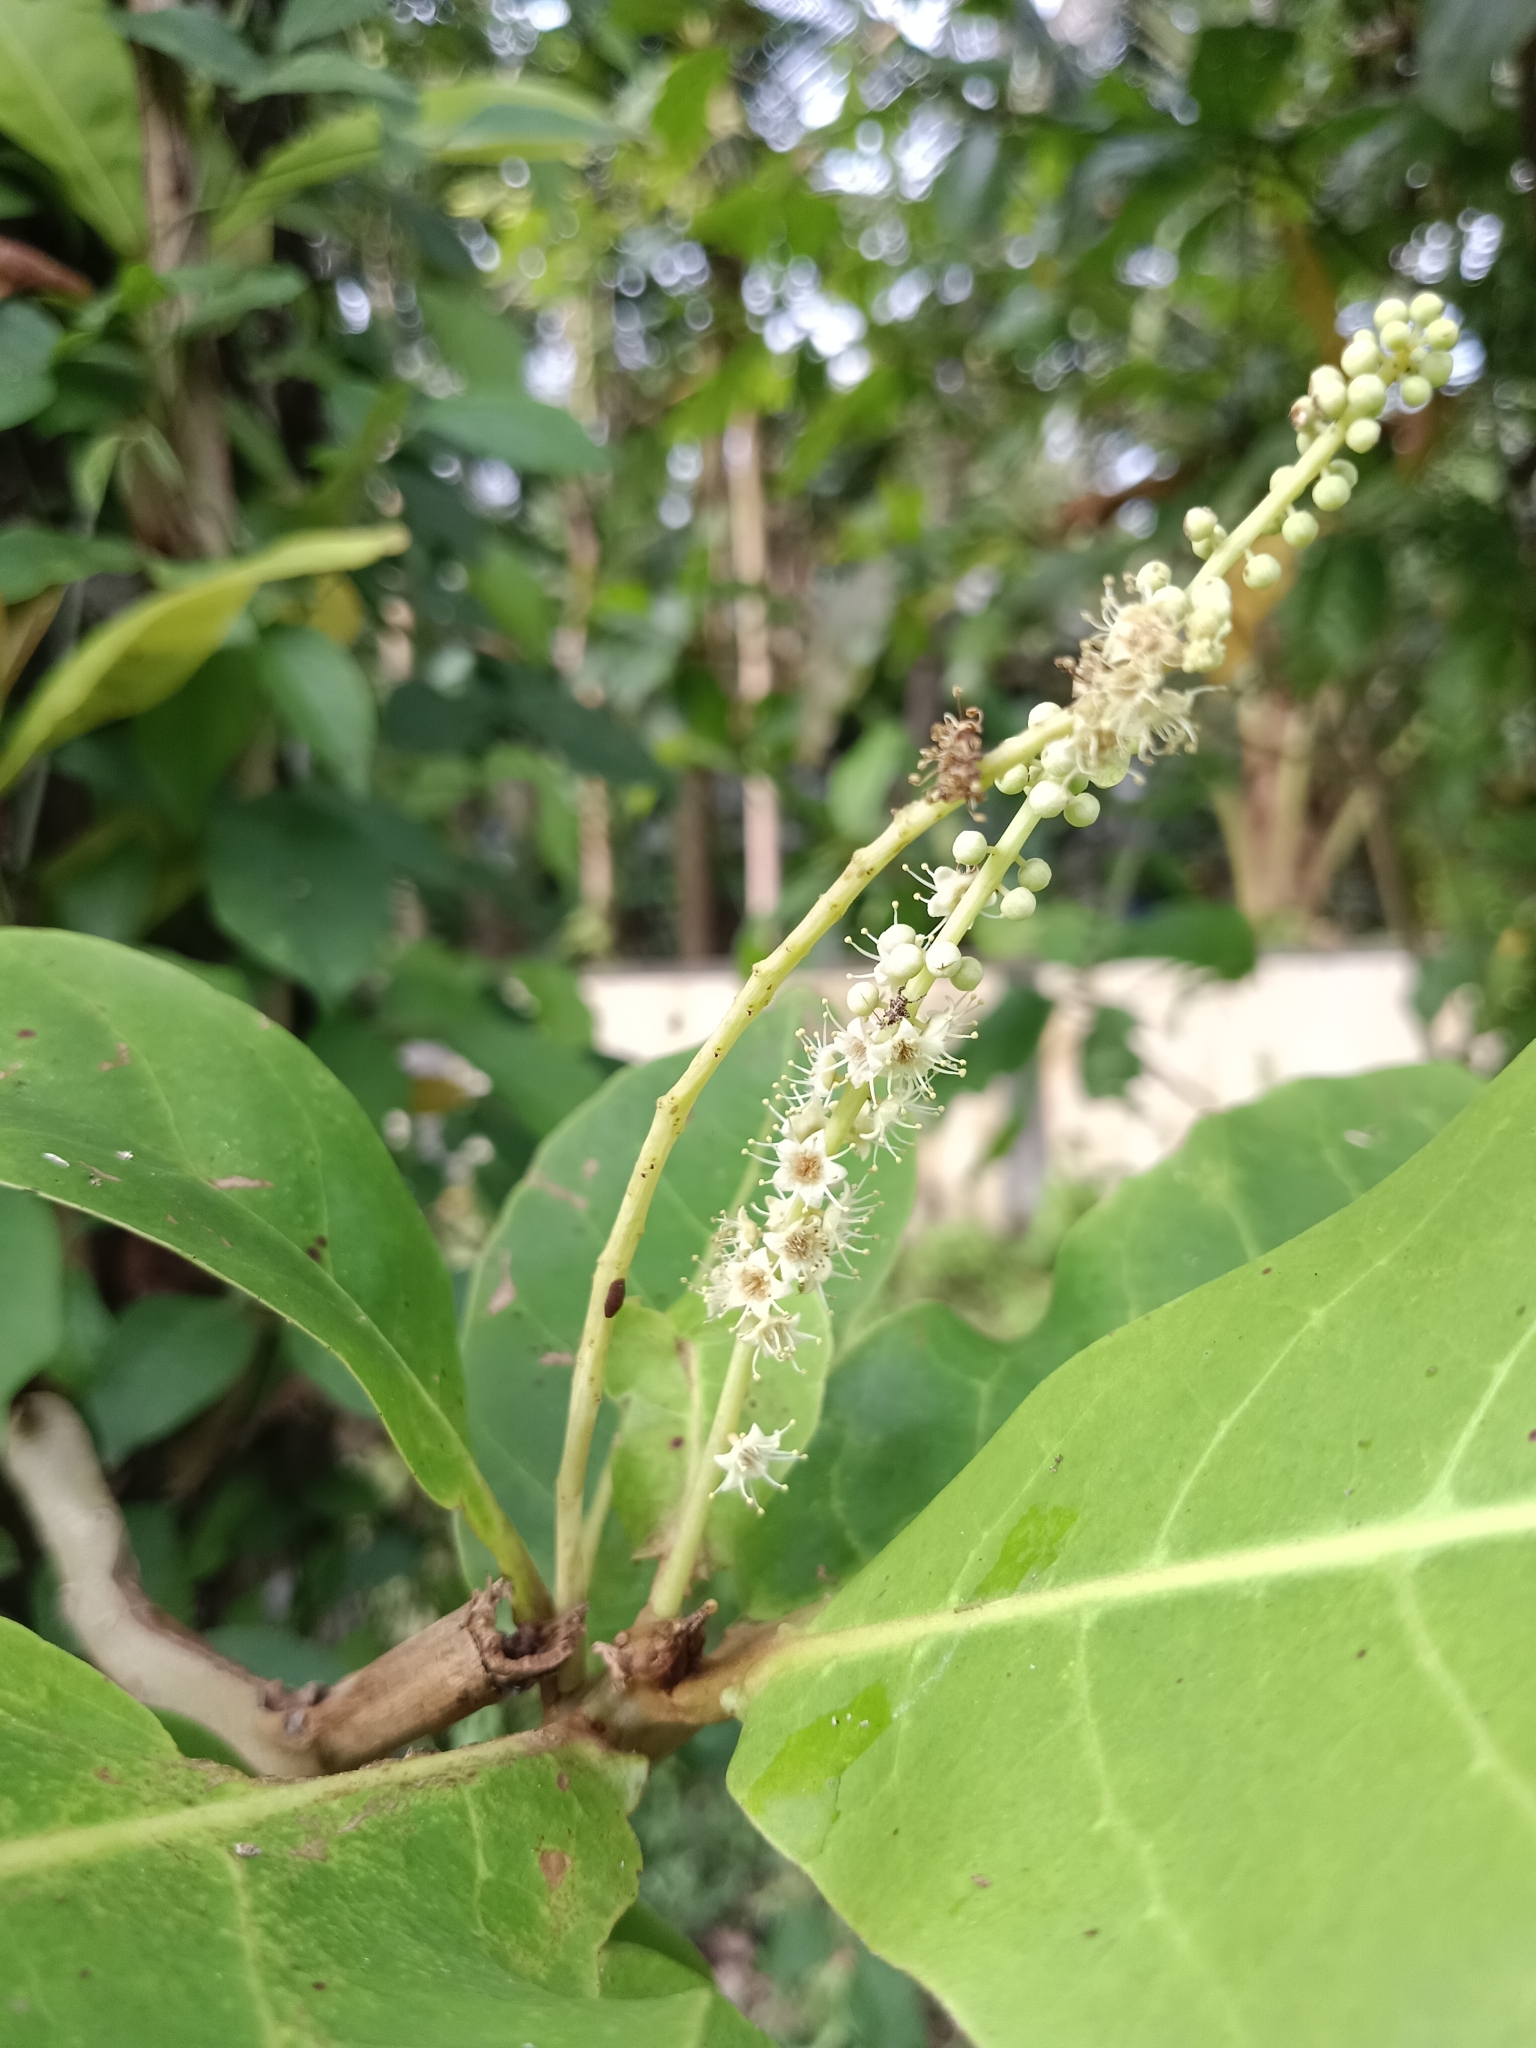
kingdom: Plantae
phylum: Tracheophyta
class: Magnoliopsida
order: Myrtales
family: Combretaceae
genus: Terminalia
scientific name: Terminalia catappa
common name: Tropical almond
